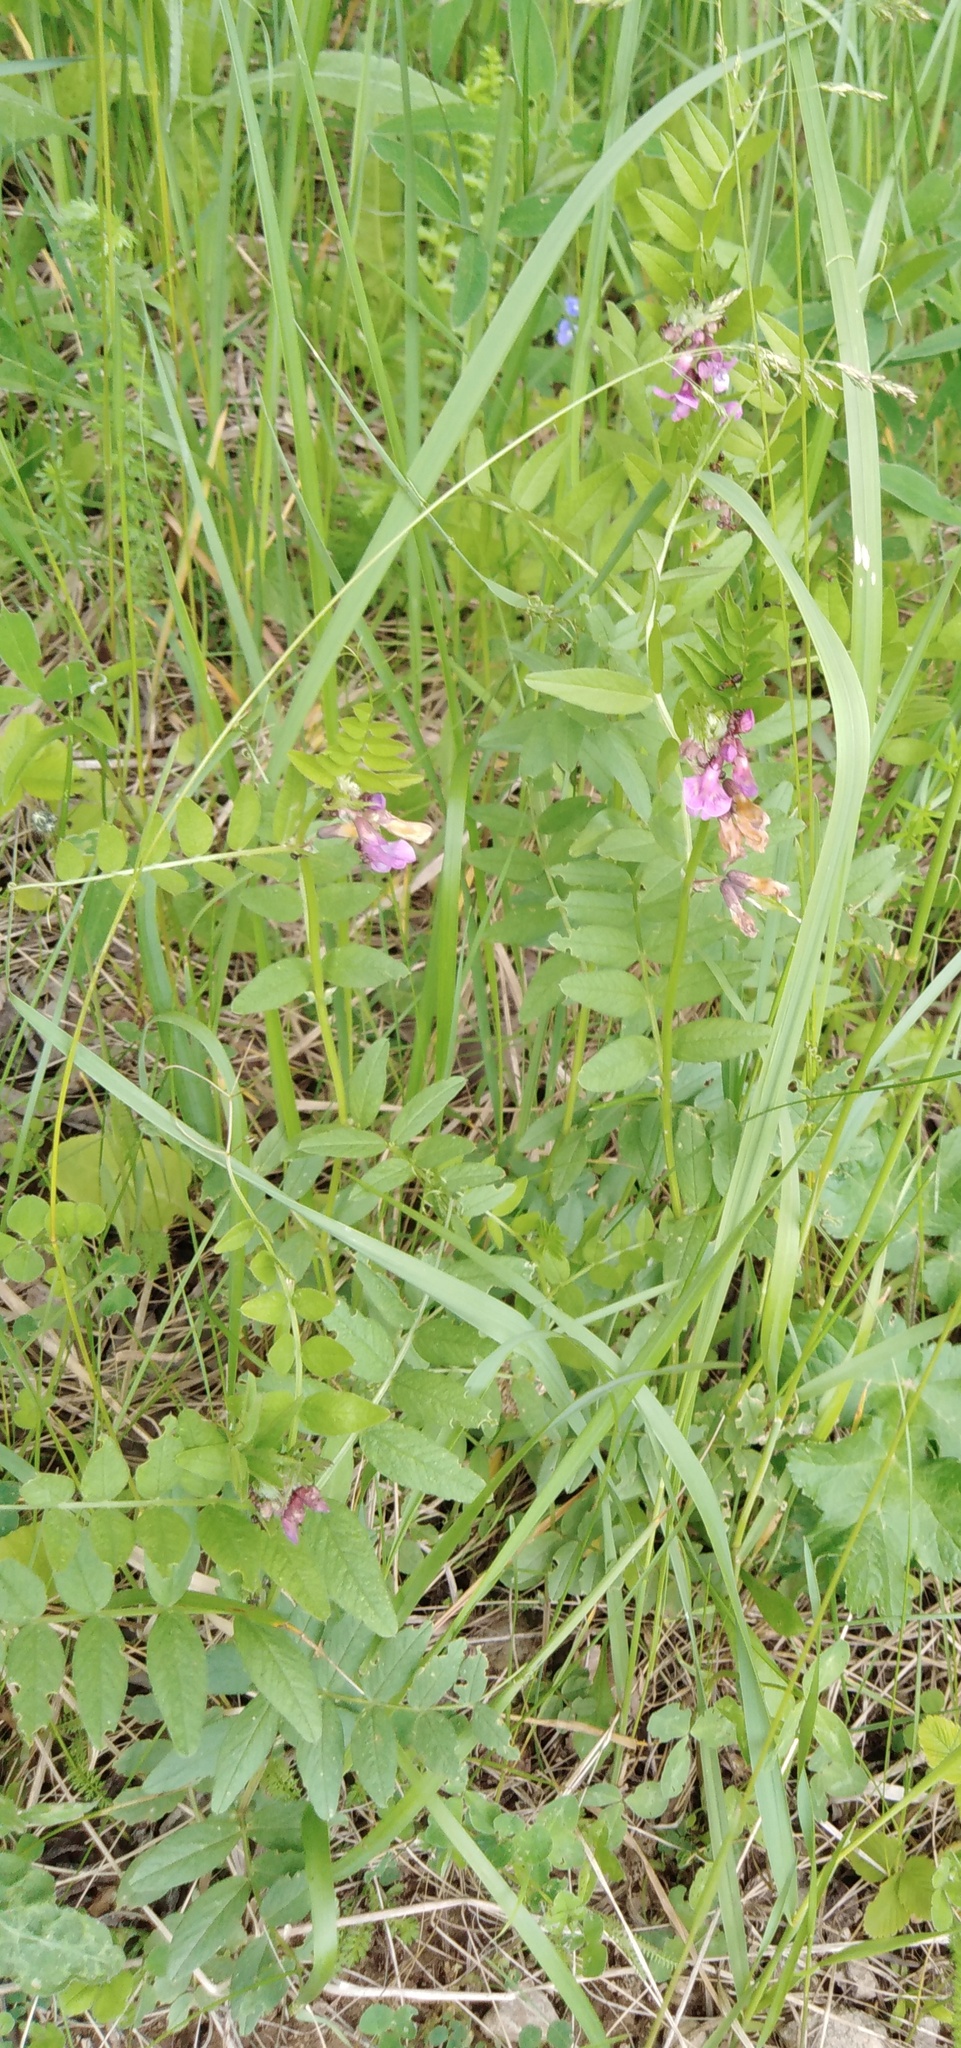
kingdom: Plantae
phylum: Tracheophyta
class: Magnoliopsida
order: Fabales
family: Fabaceae
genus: Vicia
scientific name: Vicia sepium
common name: Bush vetch
